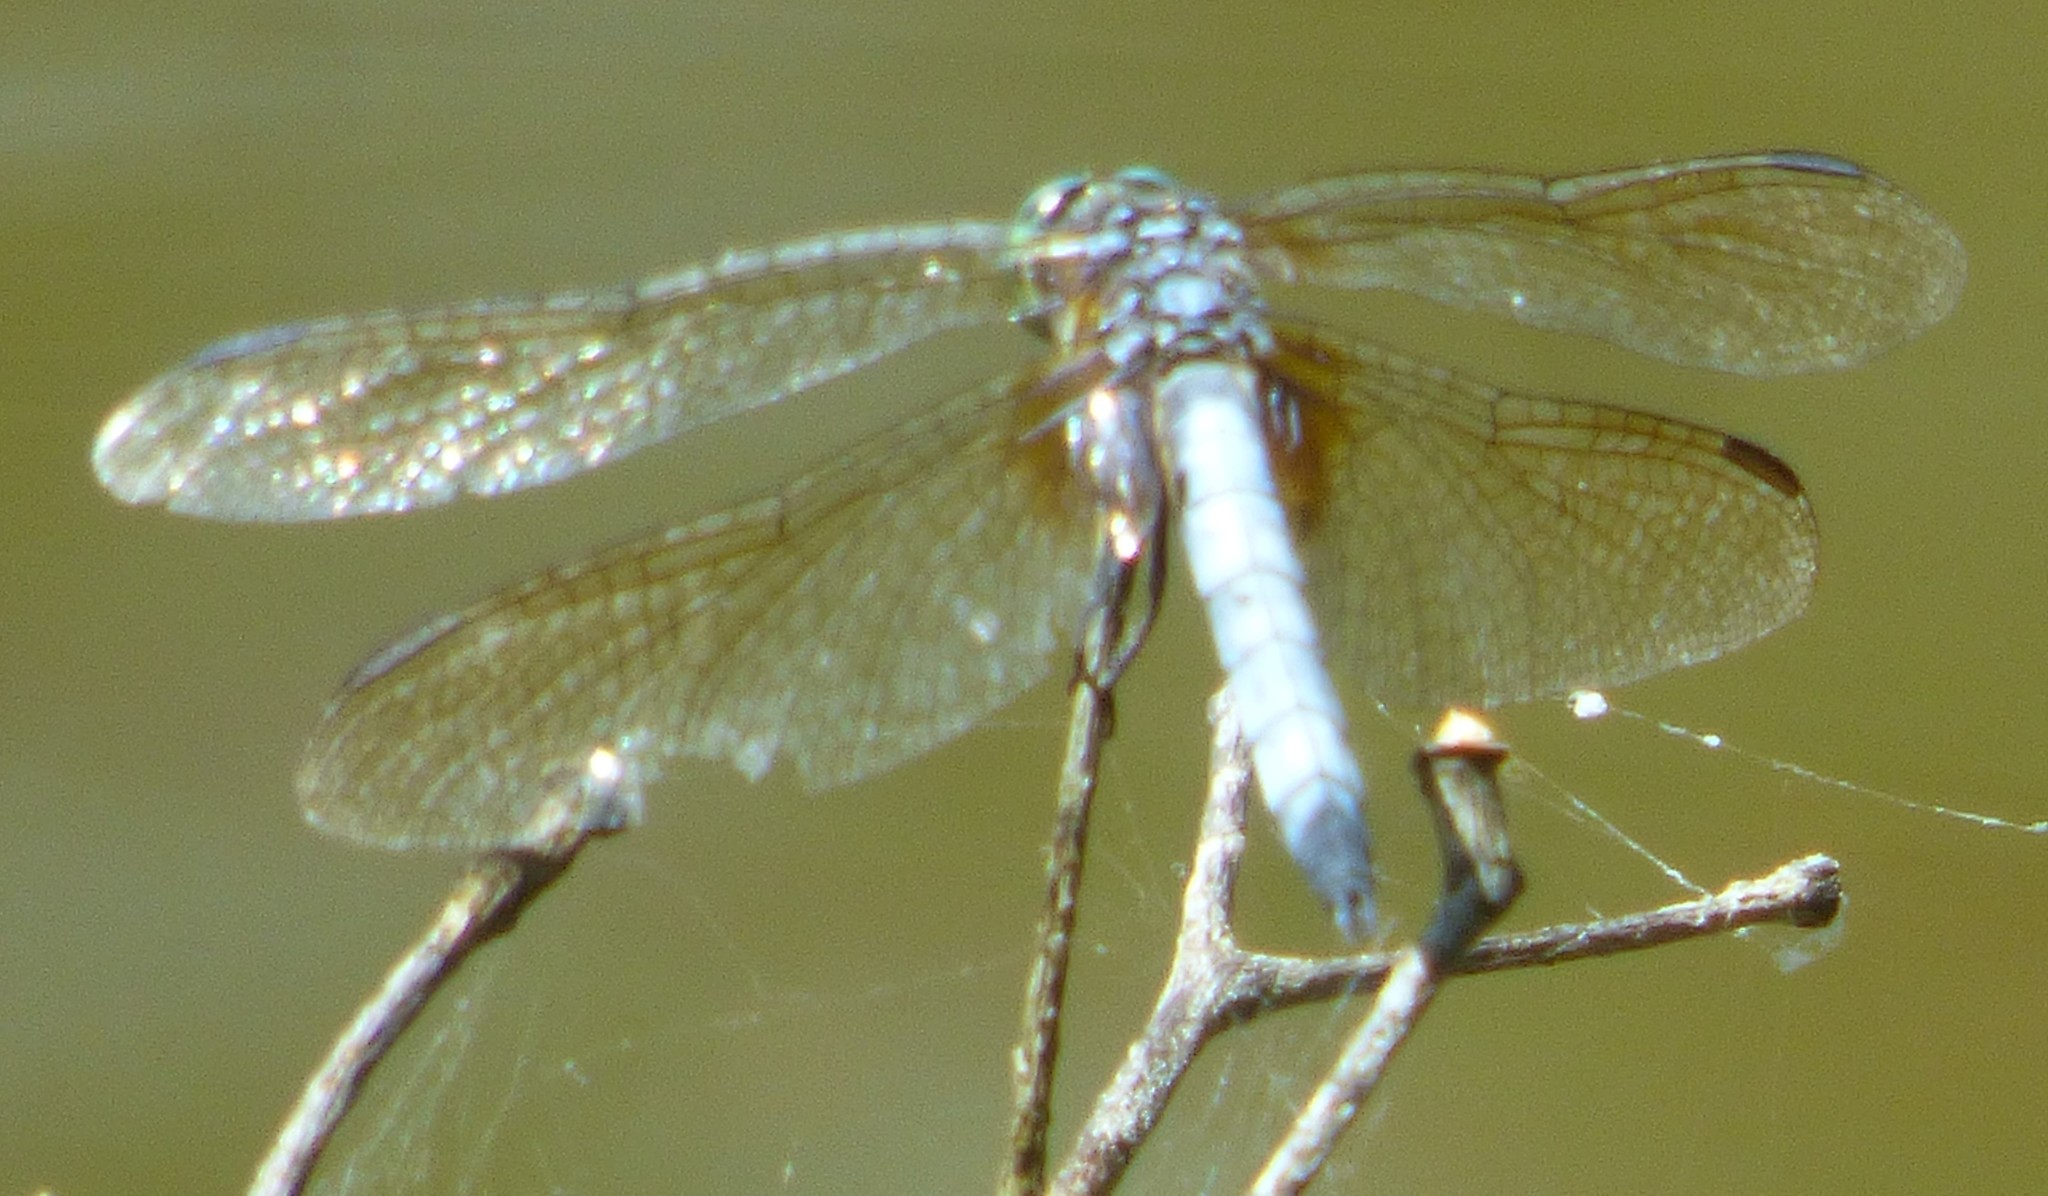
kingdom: Animalia
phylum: Arthropoda
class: Insecta
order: Odonata
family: Libellulidae
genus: Pachydiplax
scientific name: Pachydiplax longipennis
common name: Blue dasher
